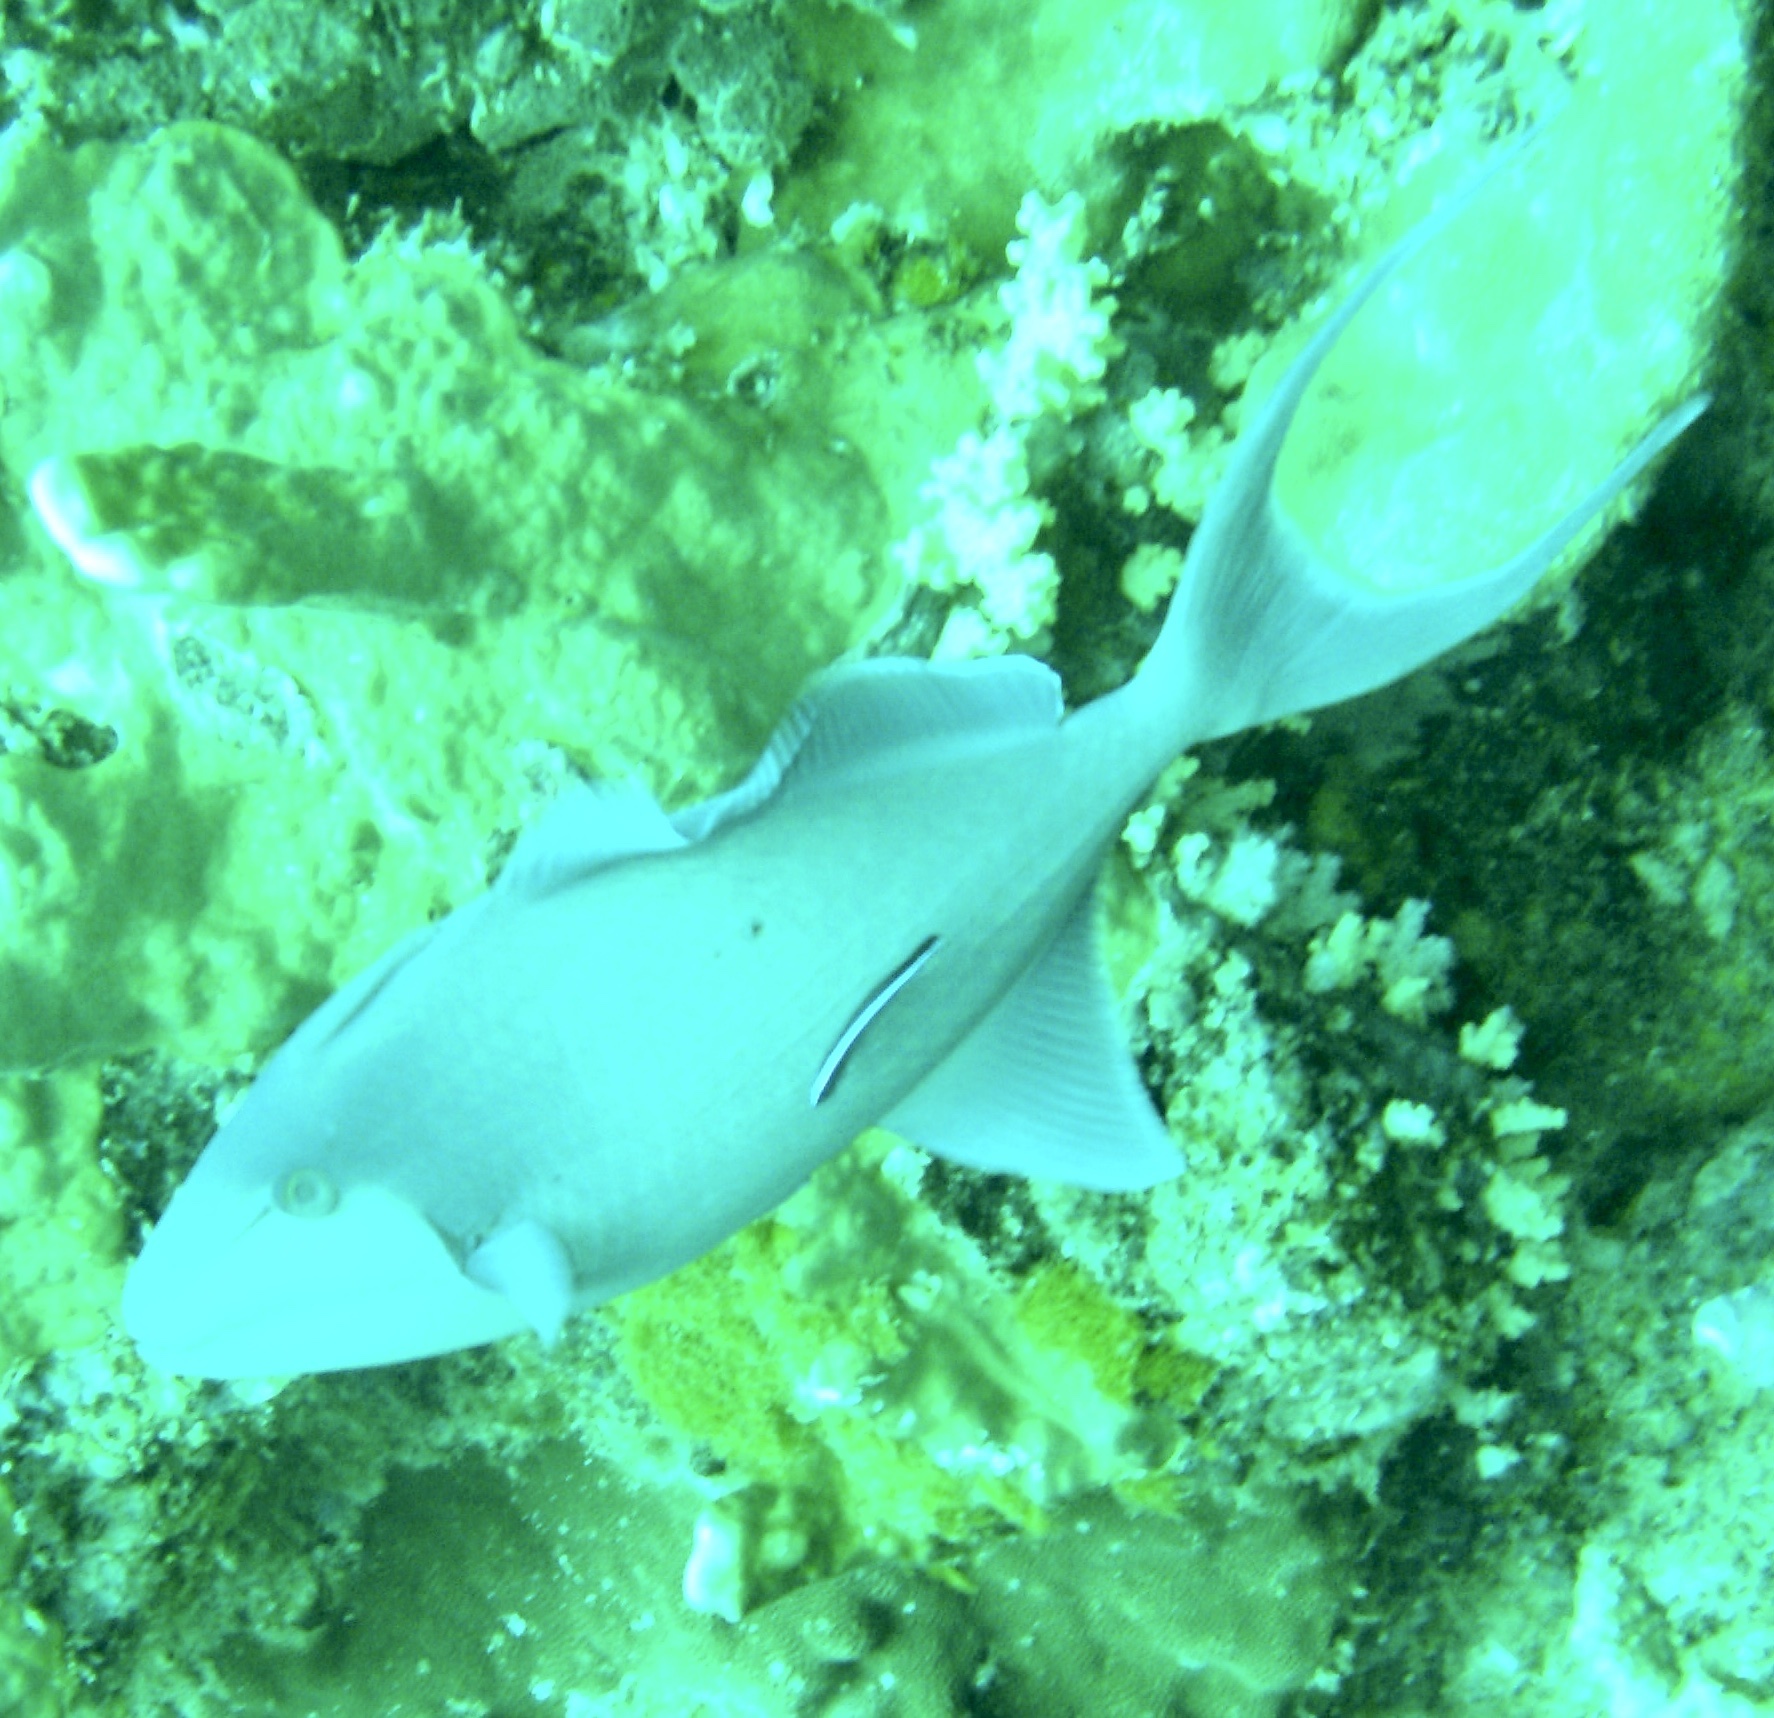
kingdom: Animalia
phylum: Chordata
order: Tetraodontiformes
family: Balistidae
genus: Odonus
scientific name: Odonus niger
